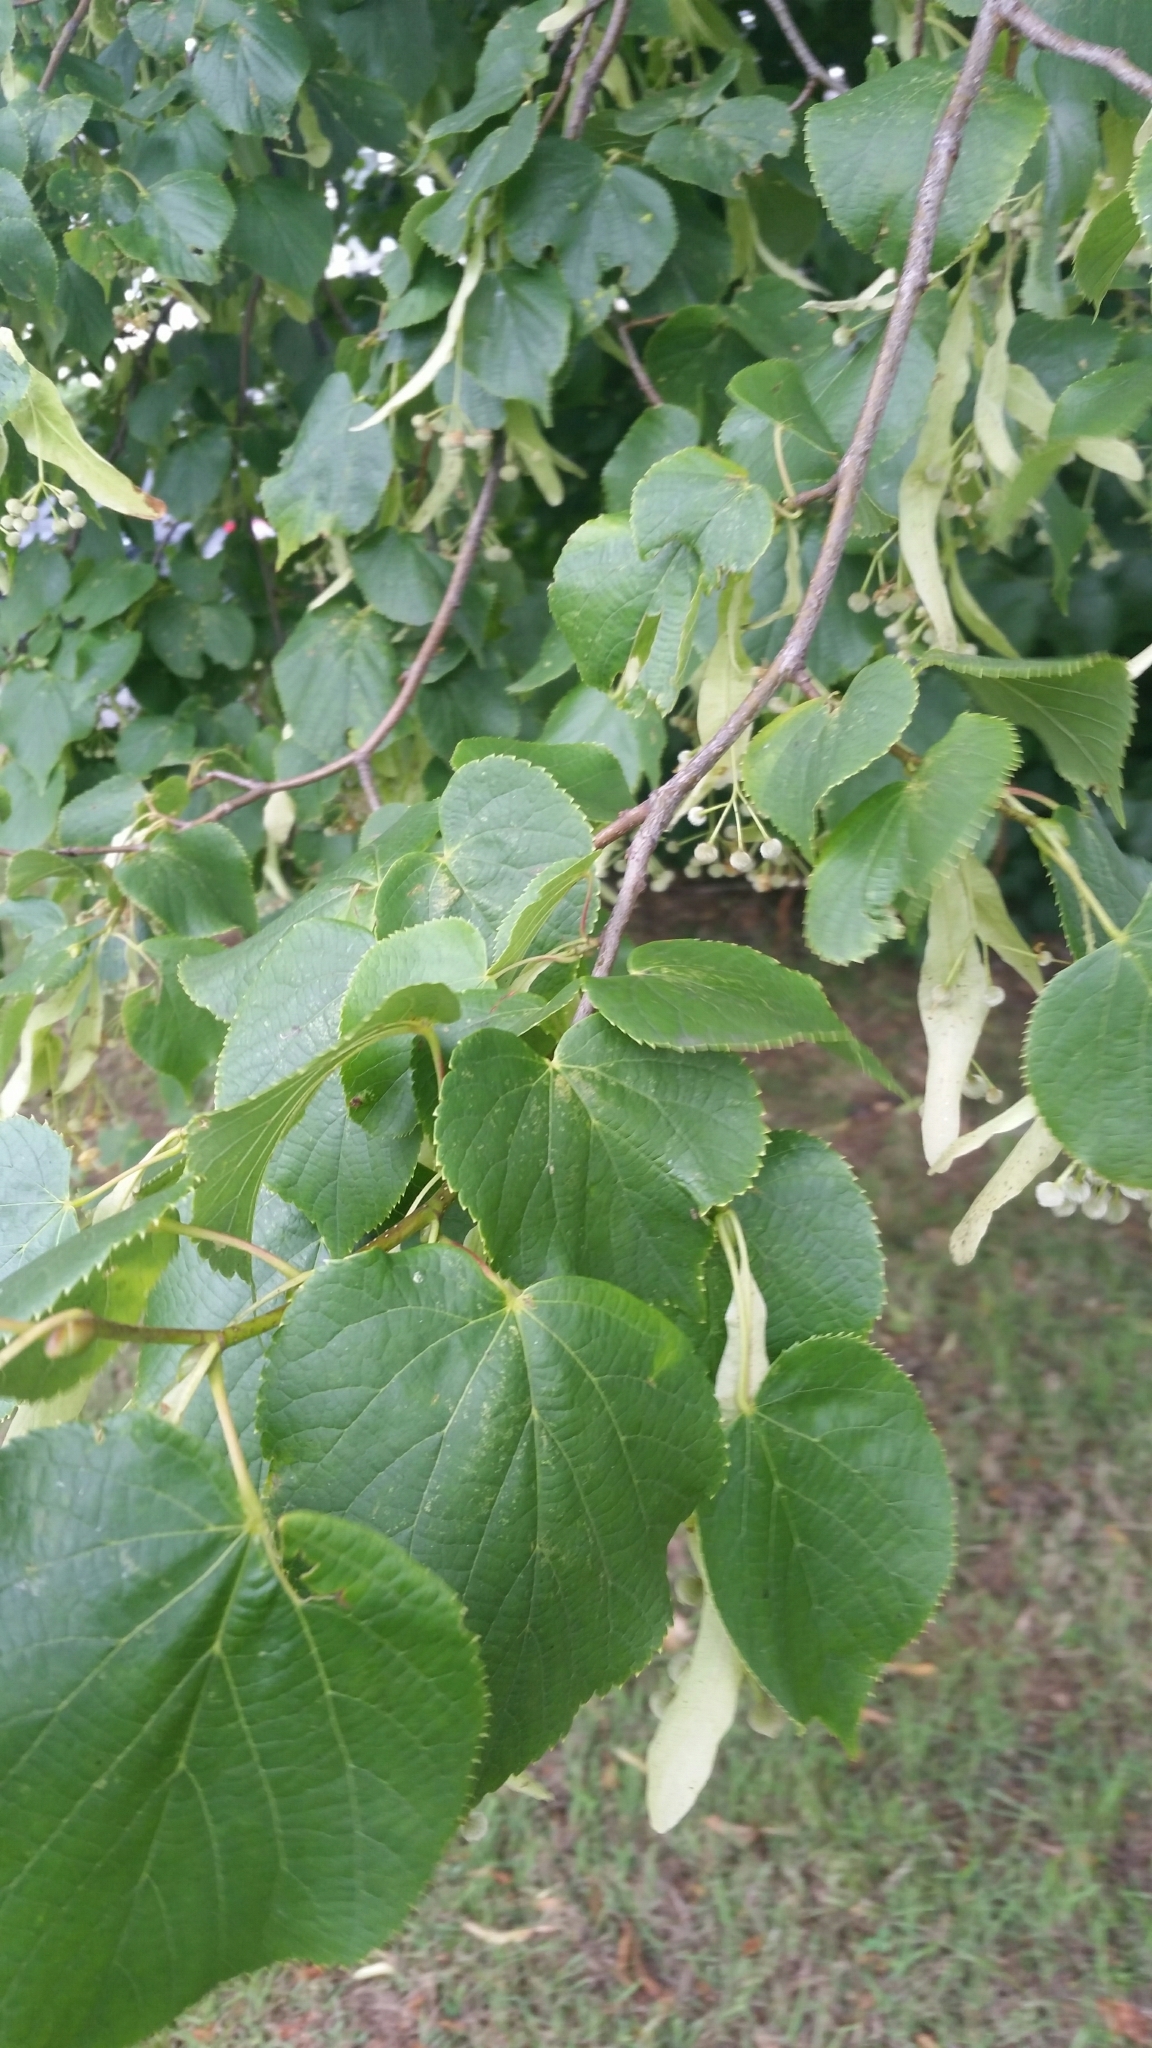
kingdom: Plantae
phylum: Tracheophyta
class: Magnoliopsida
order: Malvales
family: Malvaceae
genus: Tilia
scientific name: Tilia europaea
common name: European linden
